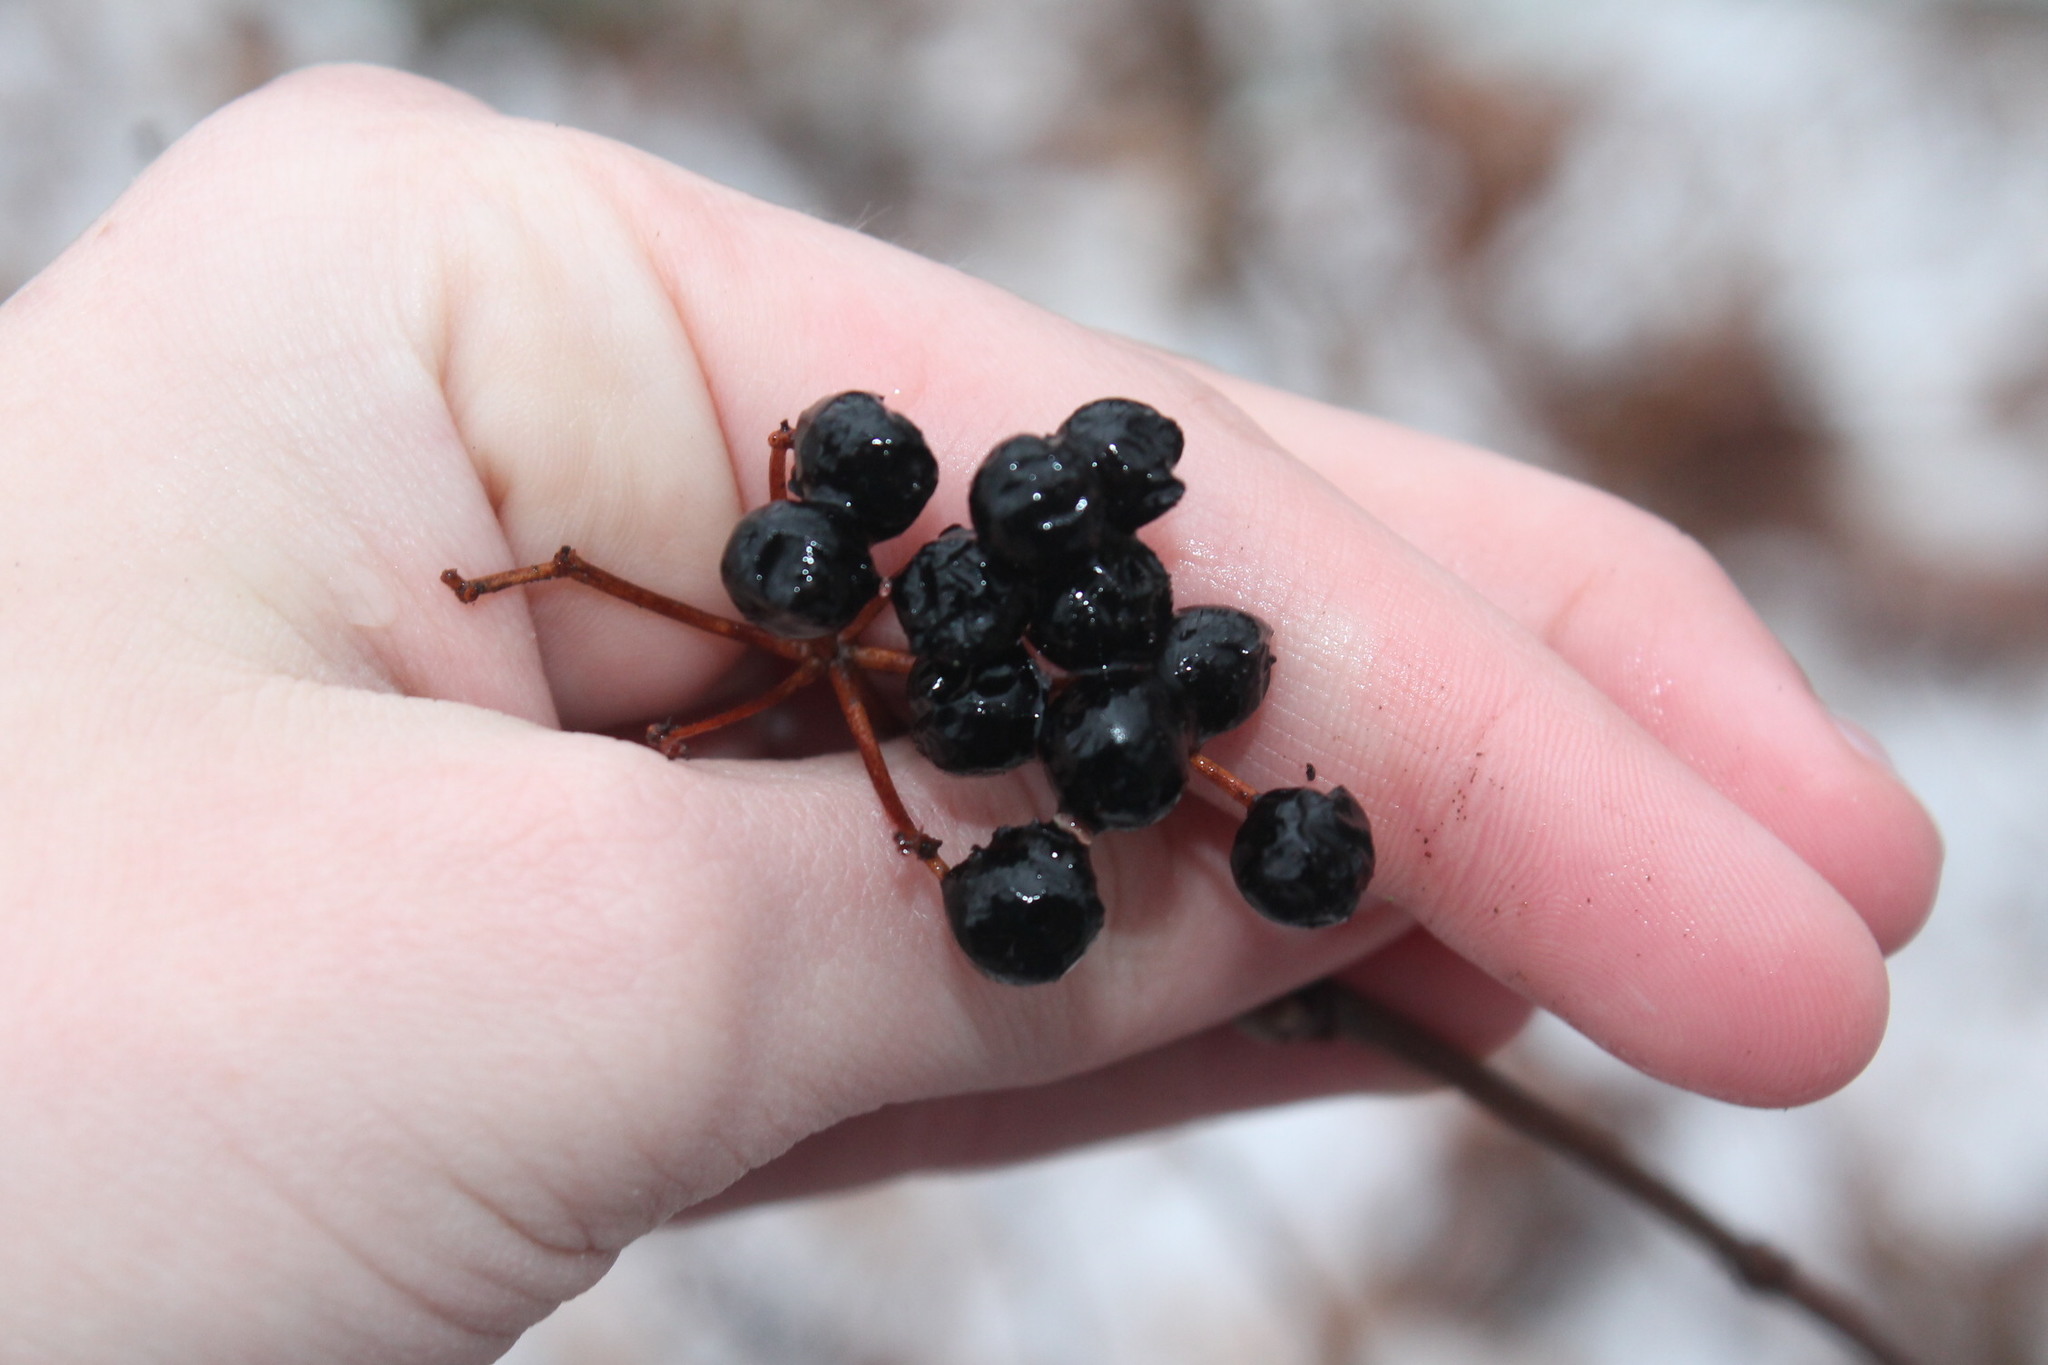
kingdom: Plantae
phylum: Tracheophyta
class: Magnoliopsida
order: Dipsacales
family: Viburnaceae
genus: Viburnum
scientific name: Viburnum acerifolium
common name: Dockmackie
